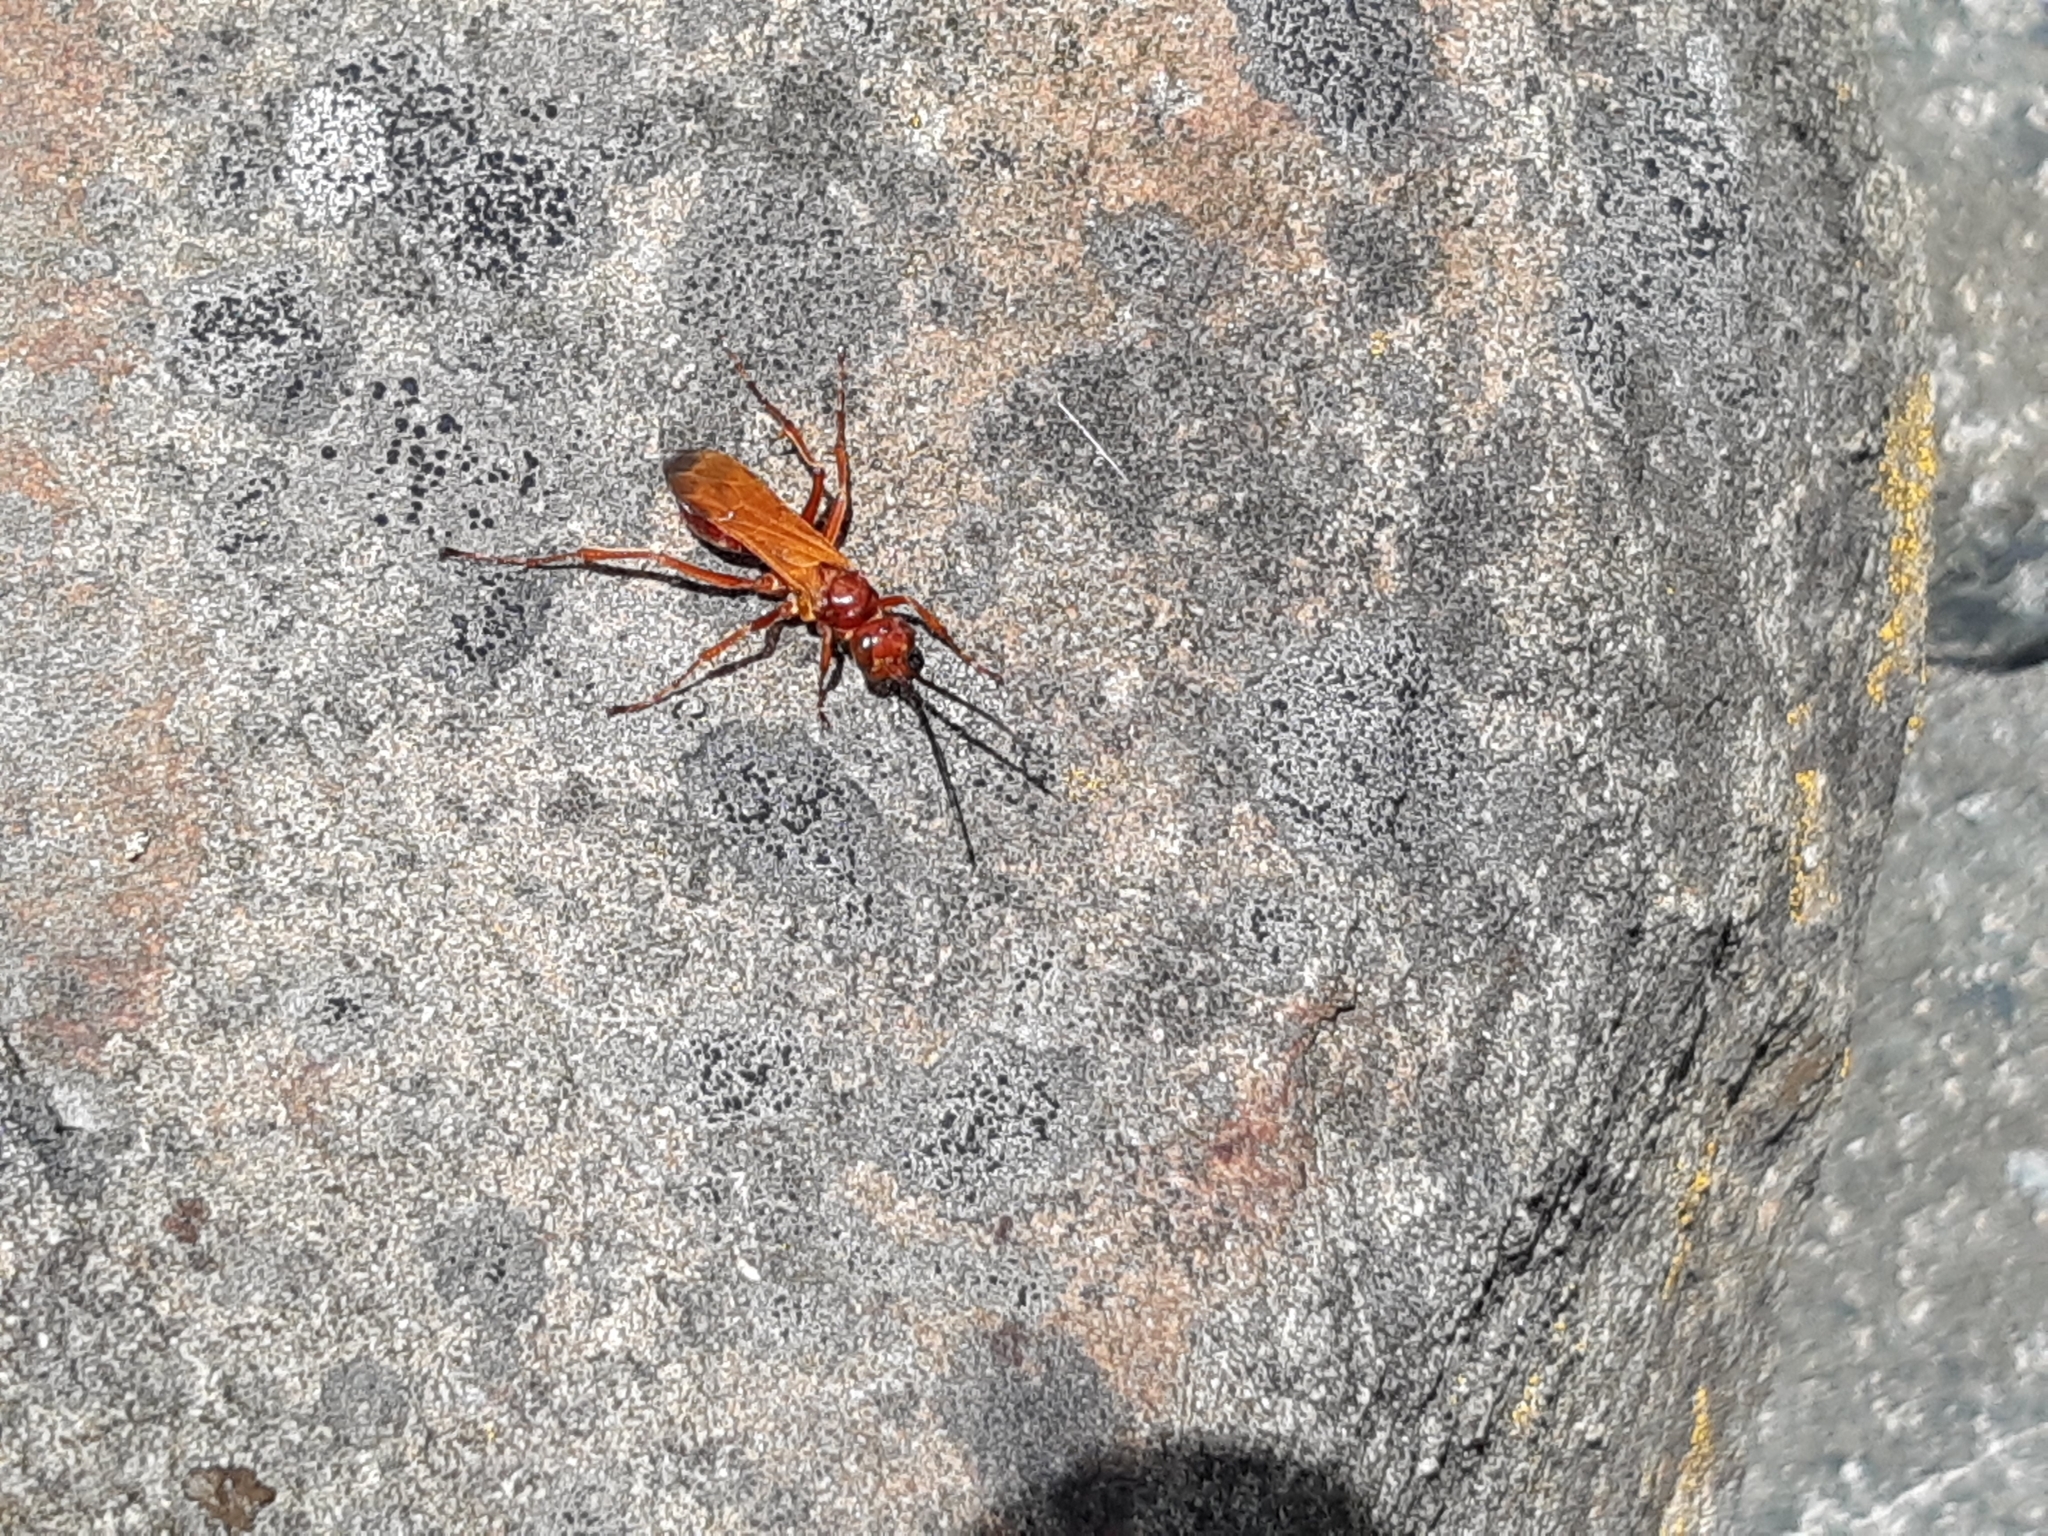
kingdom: Animalia
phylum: Arthropoda
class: Insecta
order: Hymenoptera
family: Pompilidae
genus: Sphictostethus
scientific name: Sphictostethus nitidus
